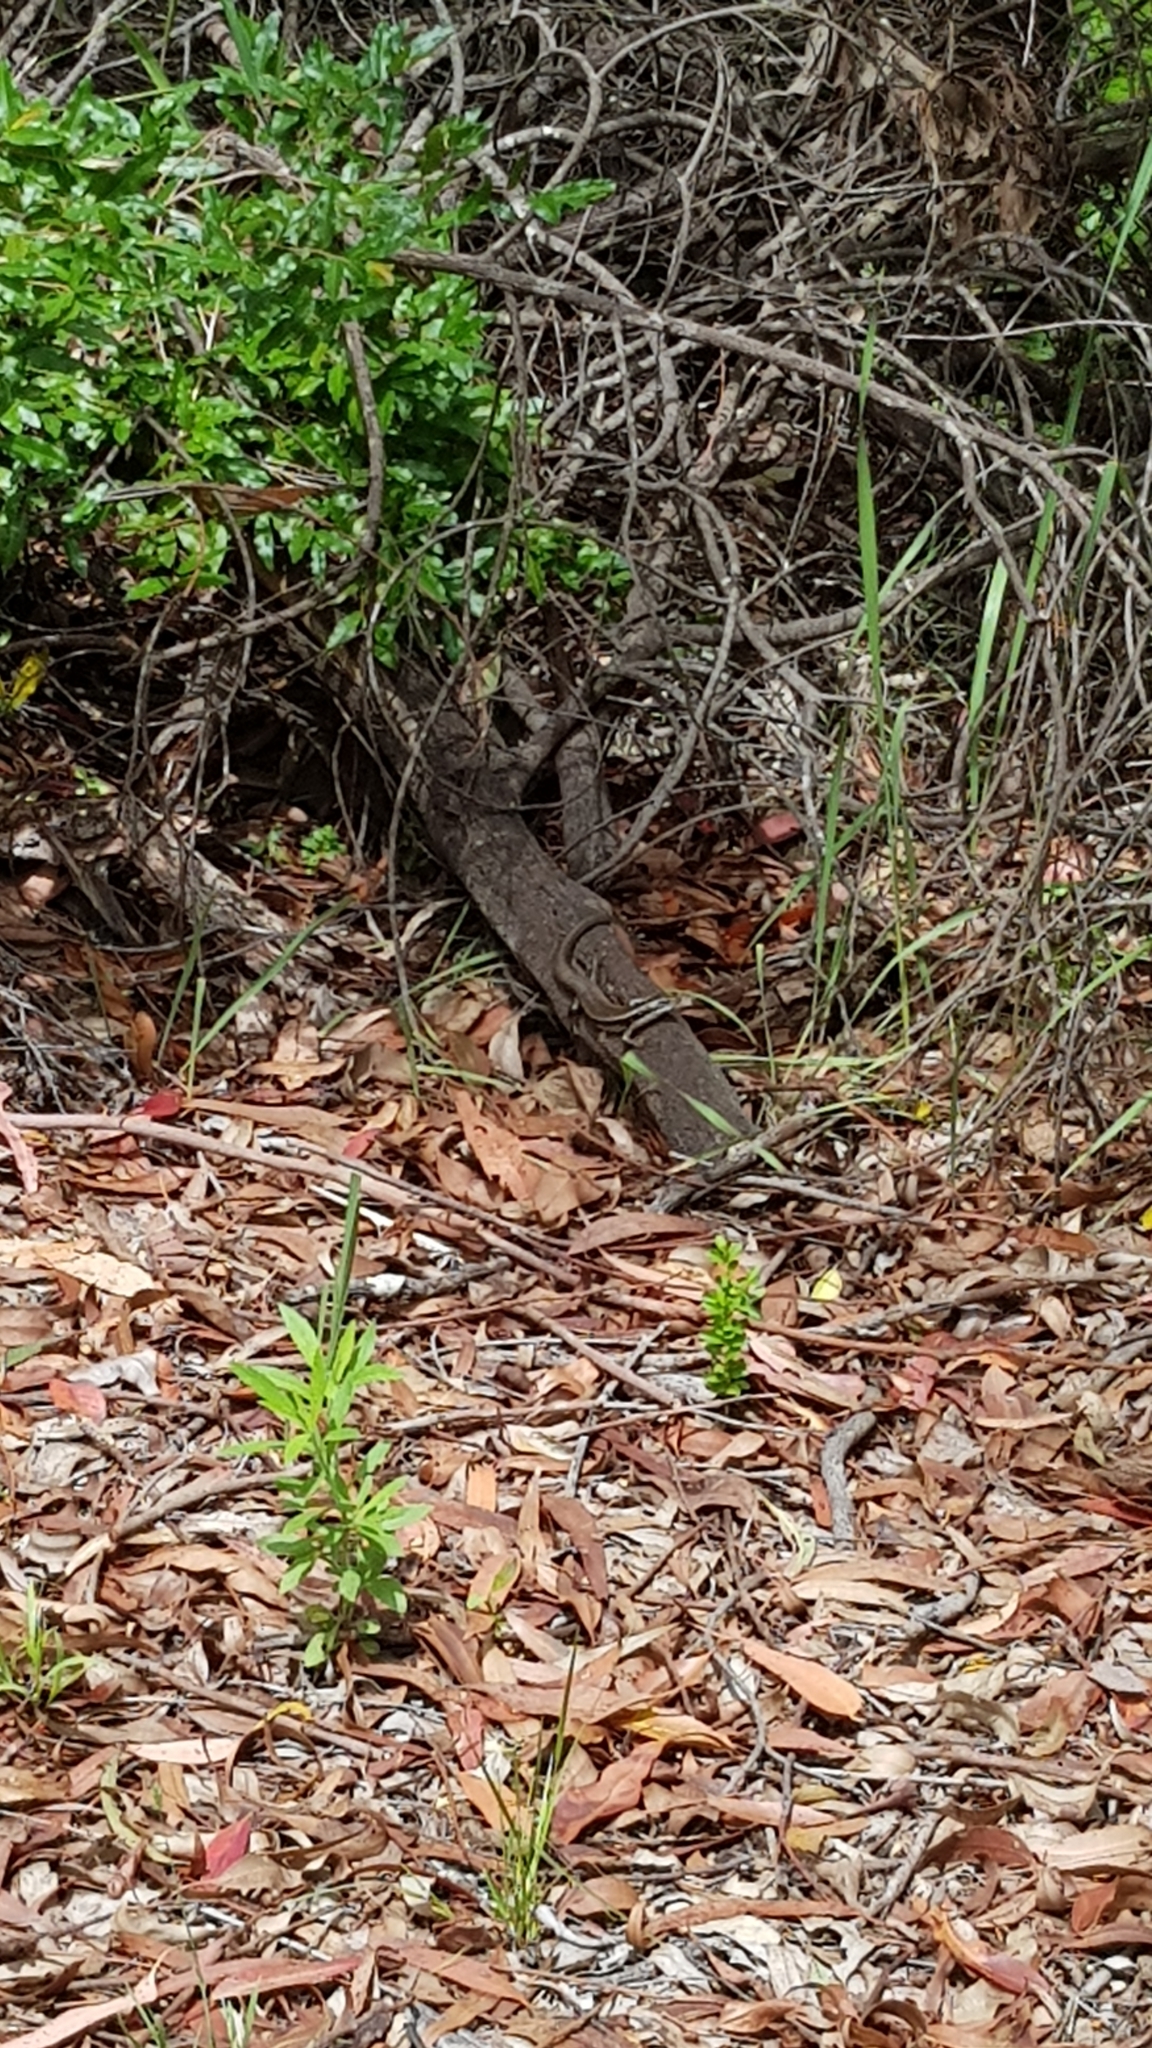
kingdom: Animalia
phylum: Chordata
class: Squamata
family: Scincidae
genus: Eulamprus
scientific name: Eulamprus quoyii
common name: Eastern water skink
